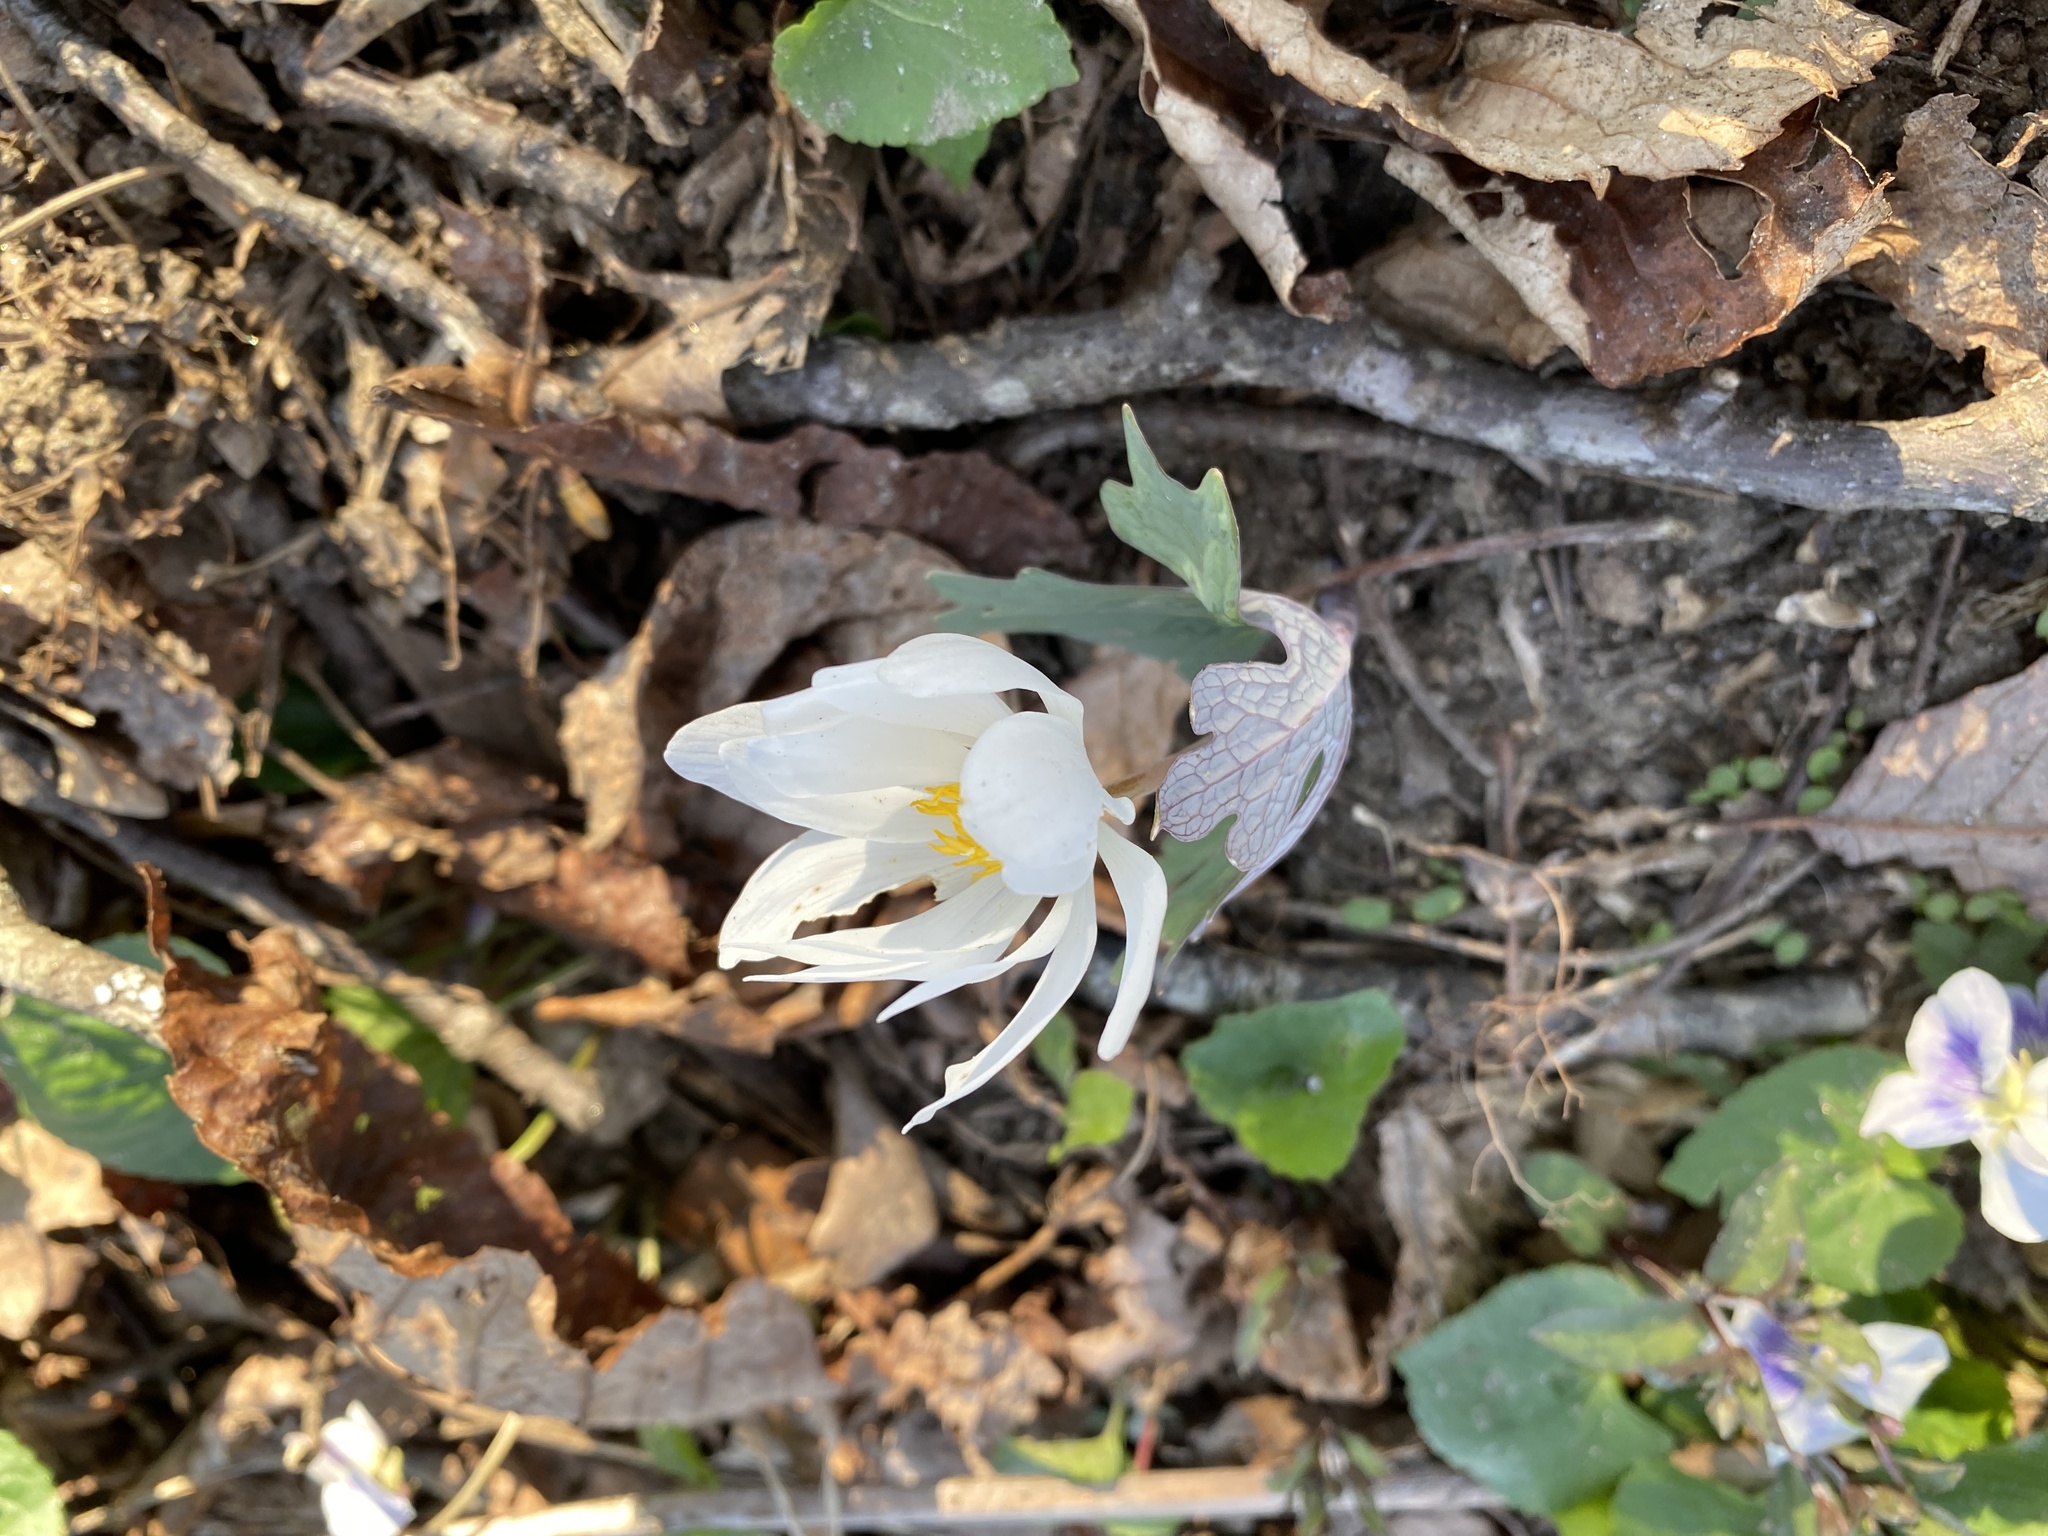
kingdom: Plantae
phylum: Tracheophyta
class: Magnoliopsida
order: Ranunculales
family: Papaveraceae
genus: Sanguinaria
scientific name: Sanguinaria canadensis
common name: Bloodroot
